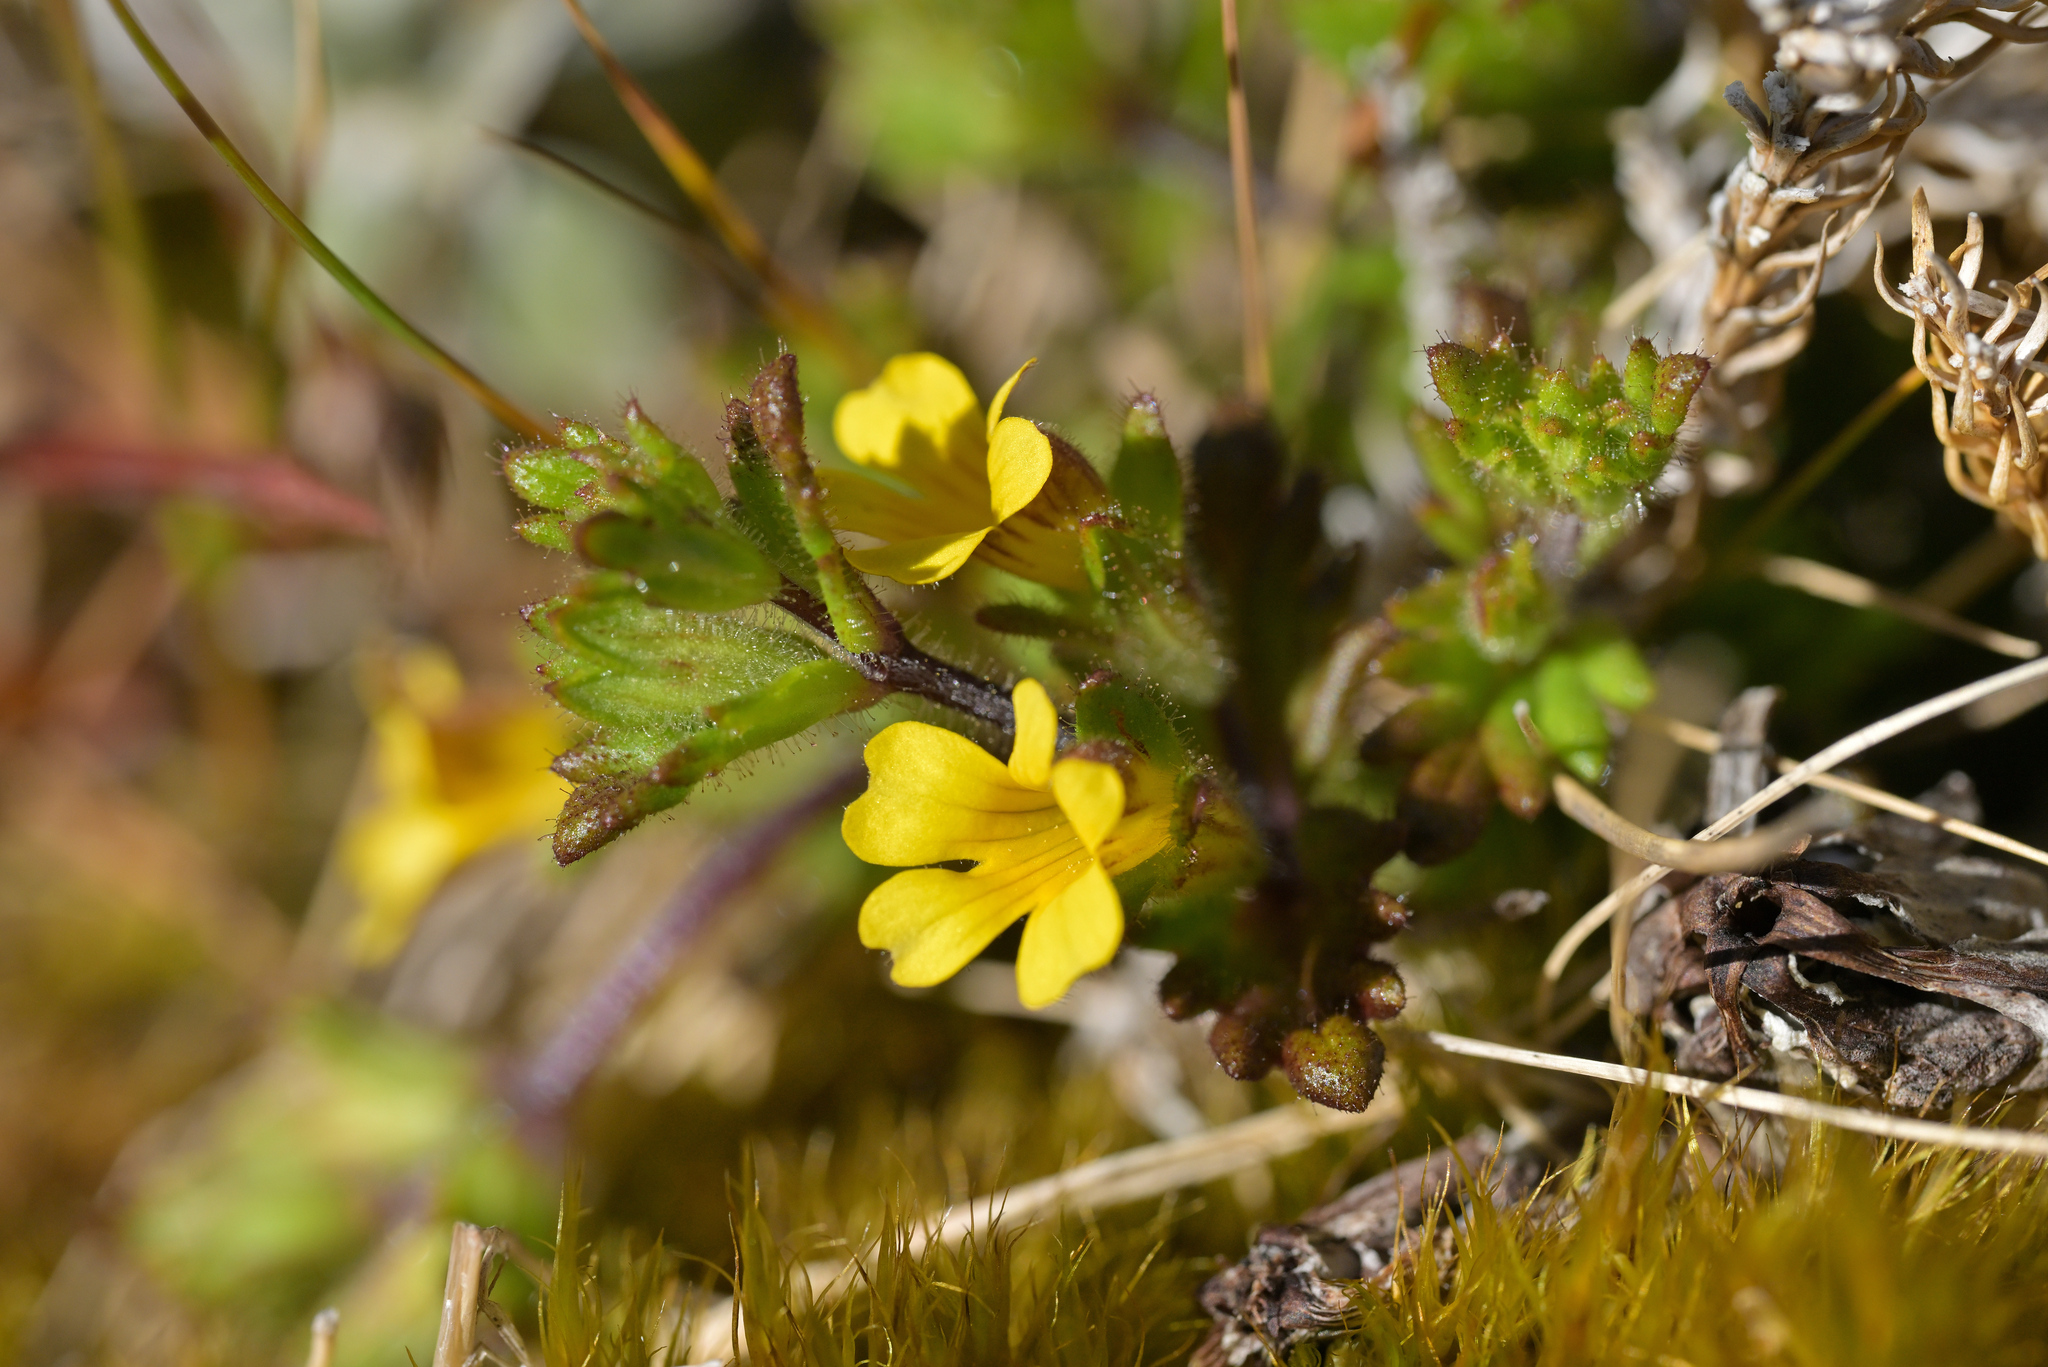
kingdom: Plantae
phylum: Tracheophyta
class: Magnoliopsida
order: Lamiales
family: Orobanchaceae
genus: Euphrasia
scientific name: Euphrasia cockayneana
